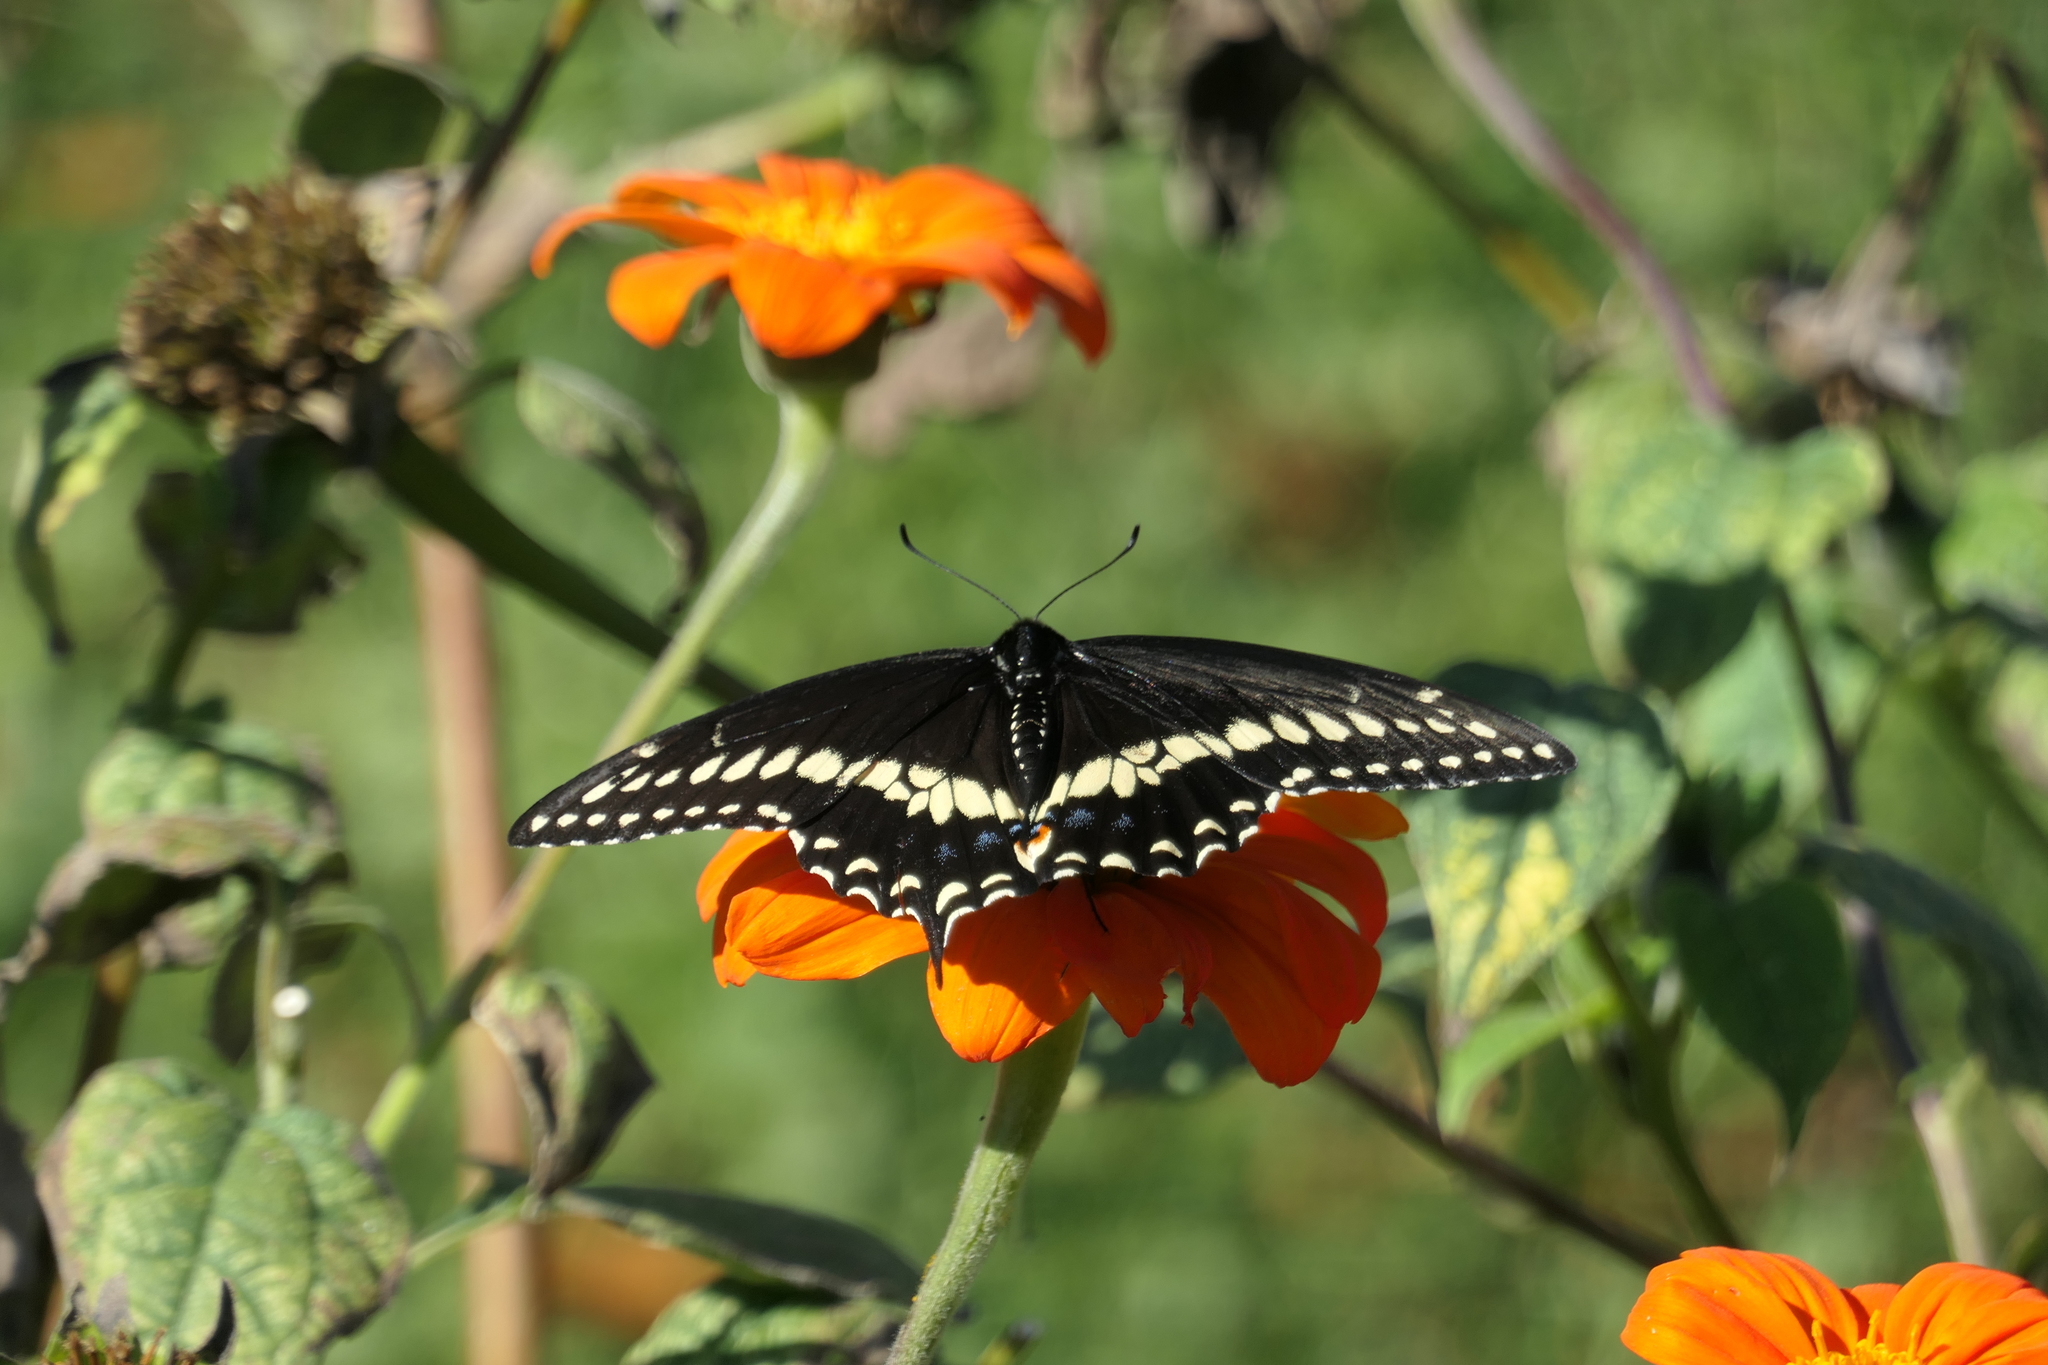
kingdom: Animalia
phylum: Arthropoda
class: Insecta
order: Lepidoptera
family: Papilionidae
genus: Papilio
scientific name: Papilio polyxenes
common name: Black swallowtail
